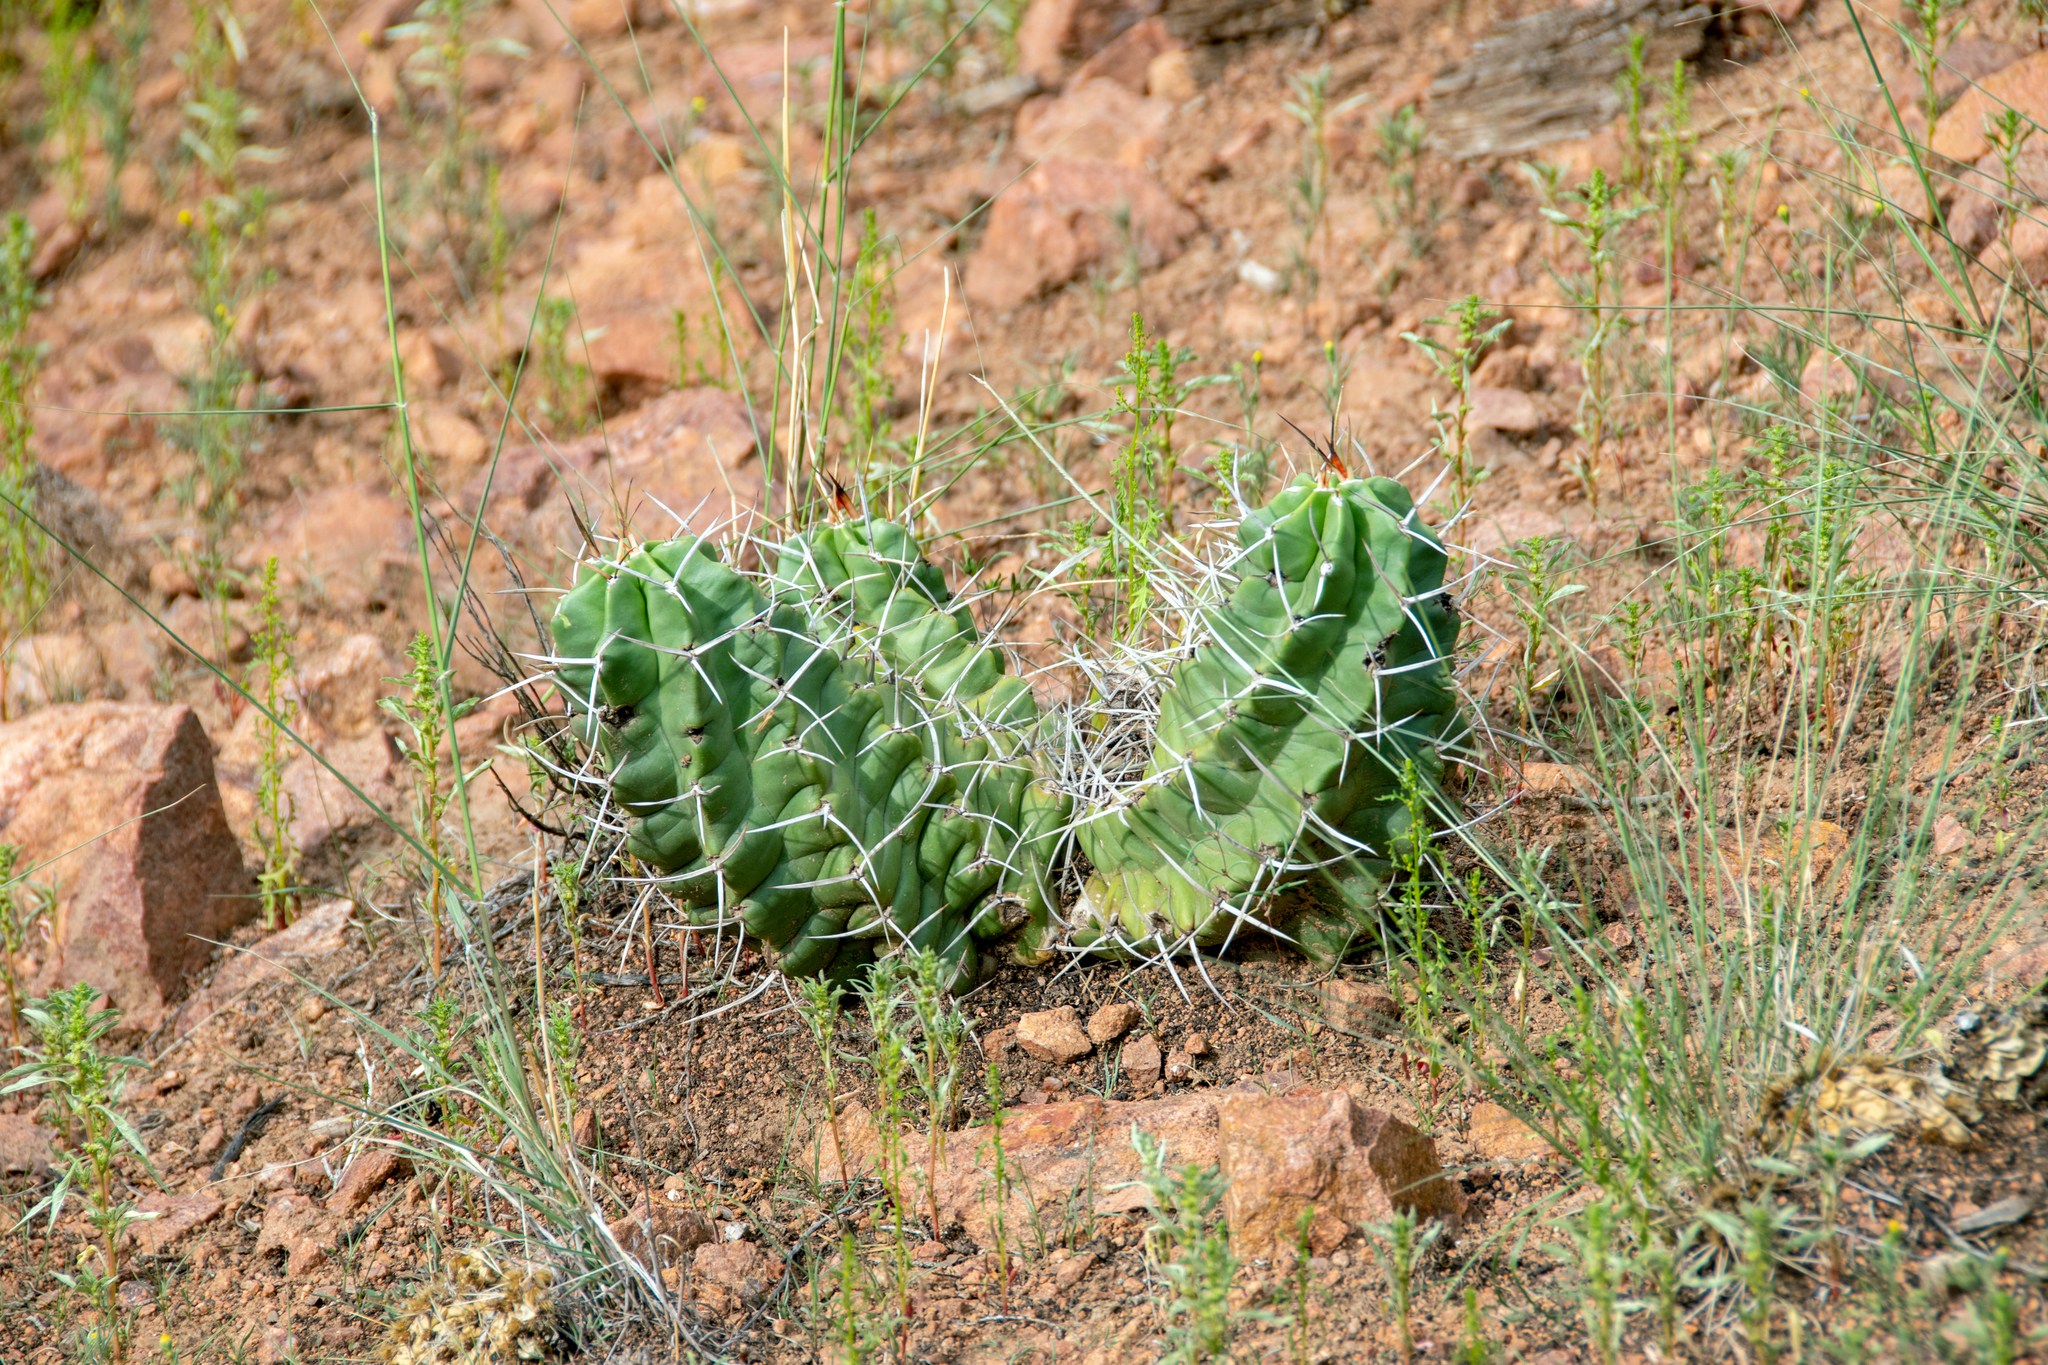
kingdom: Plantae
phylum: Tracheophyta
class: Magnoliopsida
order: Caryophyllales
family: Cactaceae
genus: Echinocereus
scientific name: Echinocereus triglochidiatus
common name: Claretcup hedgehog
